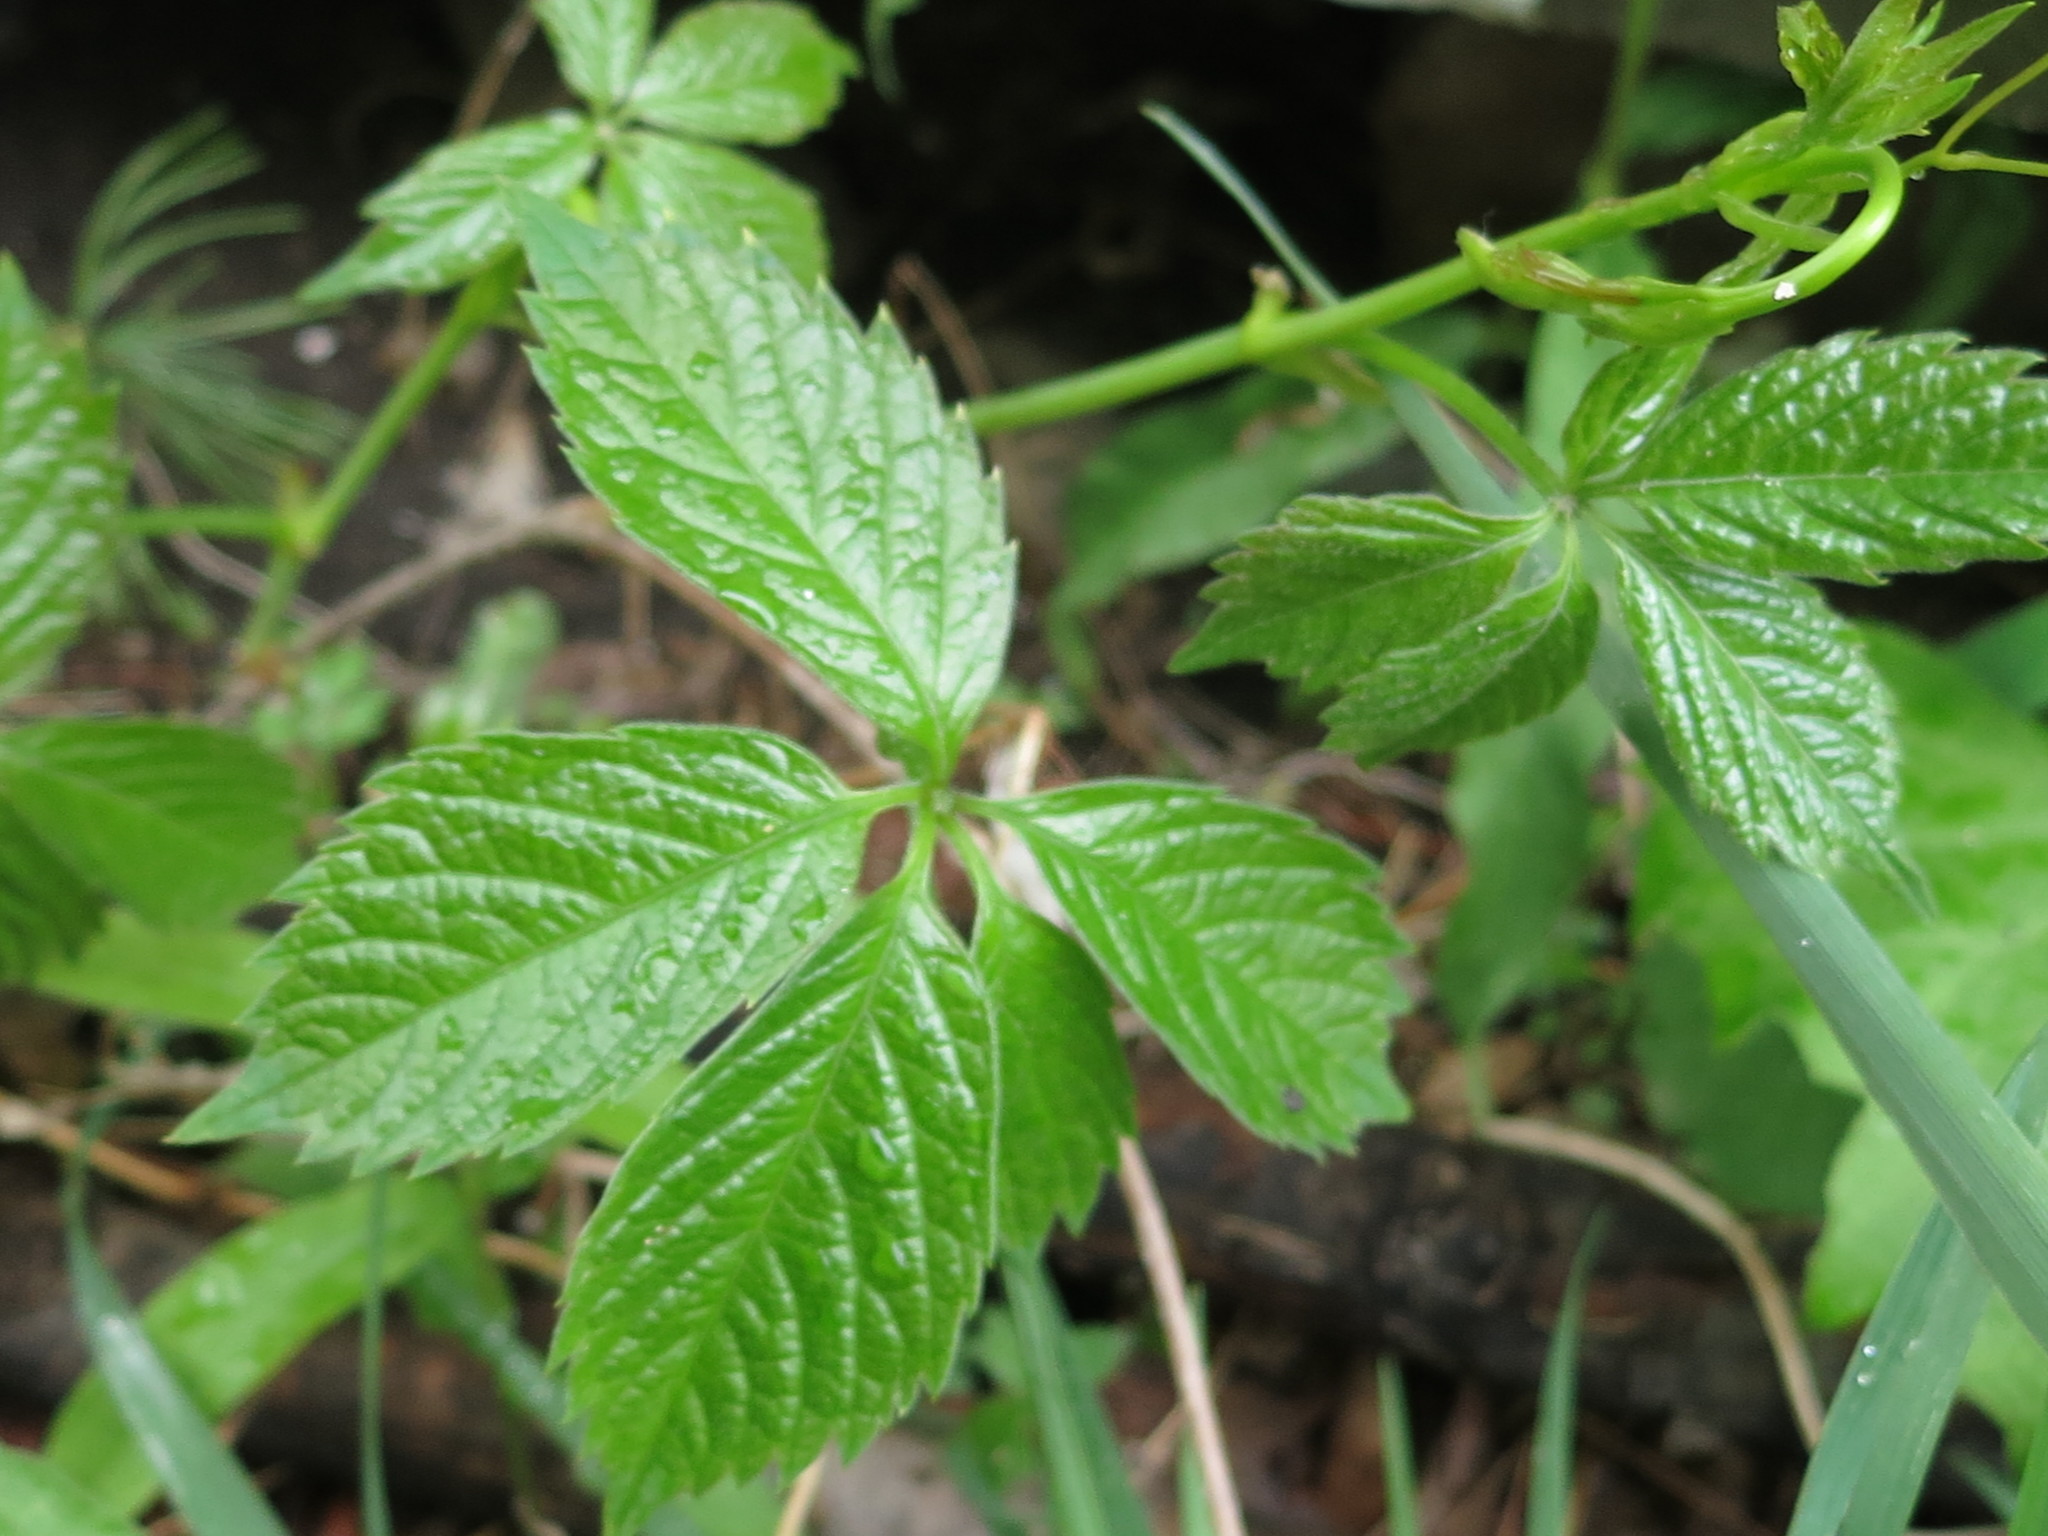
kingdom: Plantae
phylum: Tracheophyta
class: Magnoliopsida
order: Vitales
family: Vitaceae
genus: Parthenocissus
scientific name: Parthenocissus inserta
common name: False virginia-creeper
